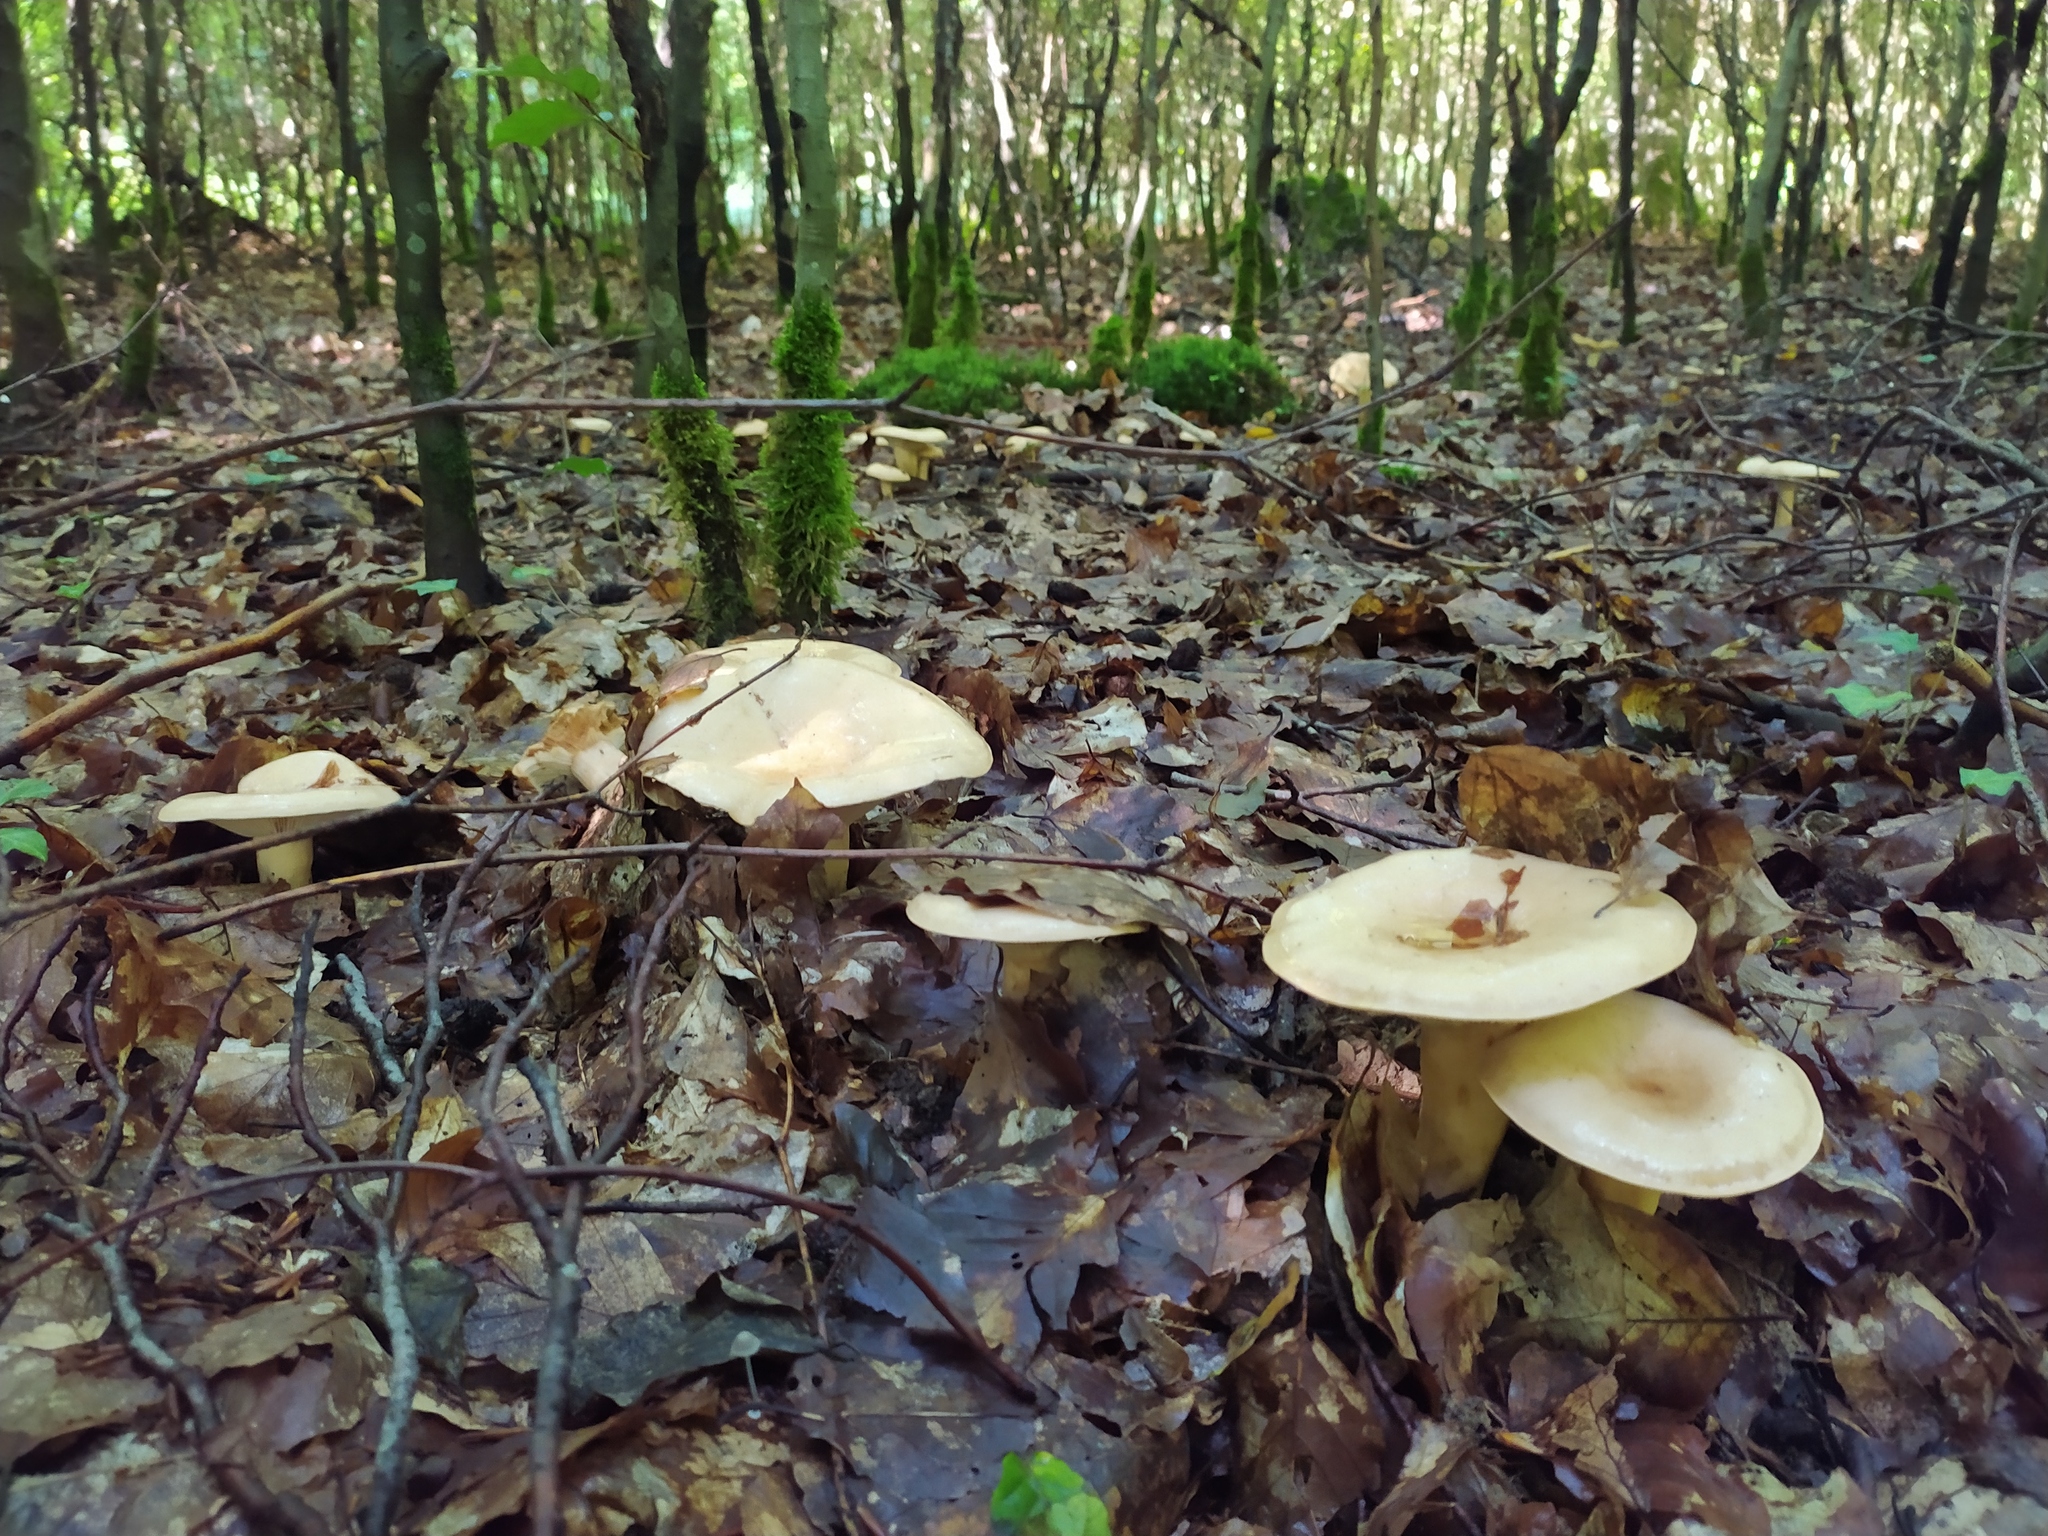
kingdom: Fungi
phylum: Basidiomycota
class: Agaricomycetes
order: Russulales
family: Russulaceae
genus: Lactarius
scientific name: Lactarius pallidus
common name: Pale milkcap
